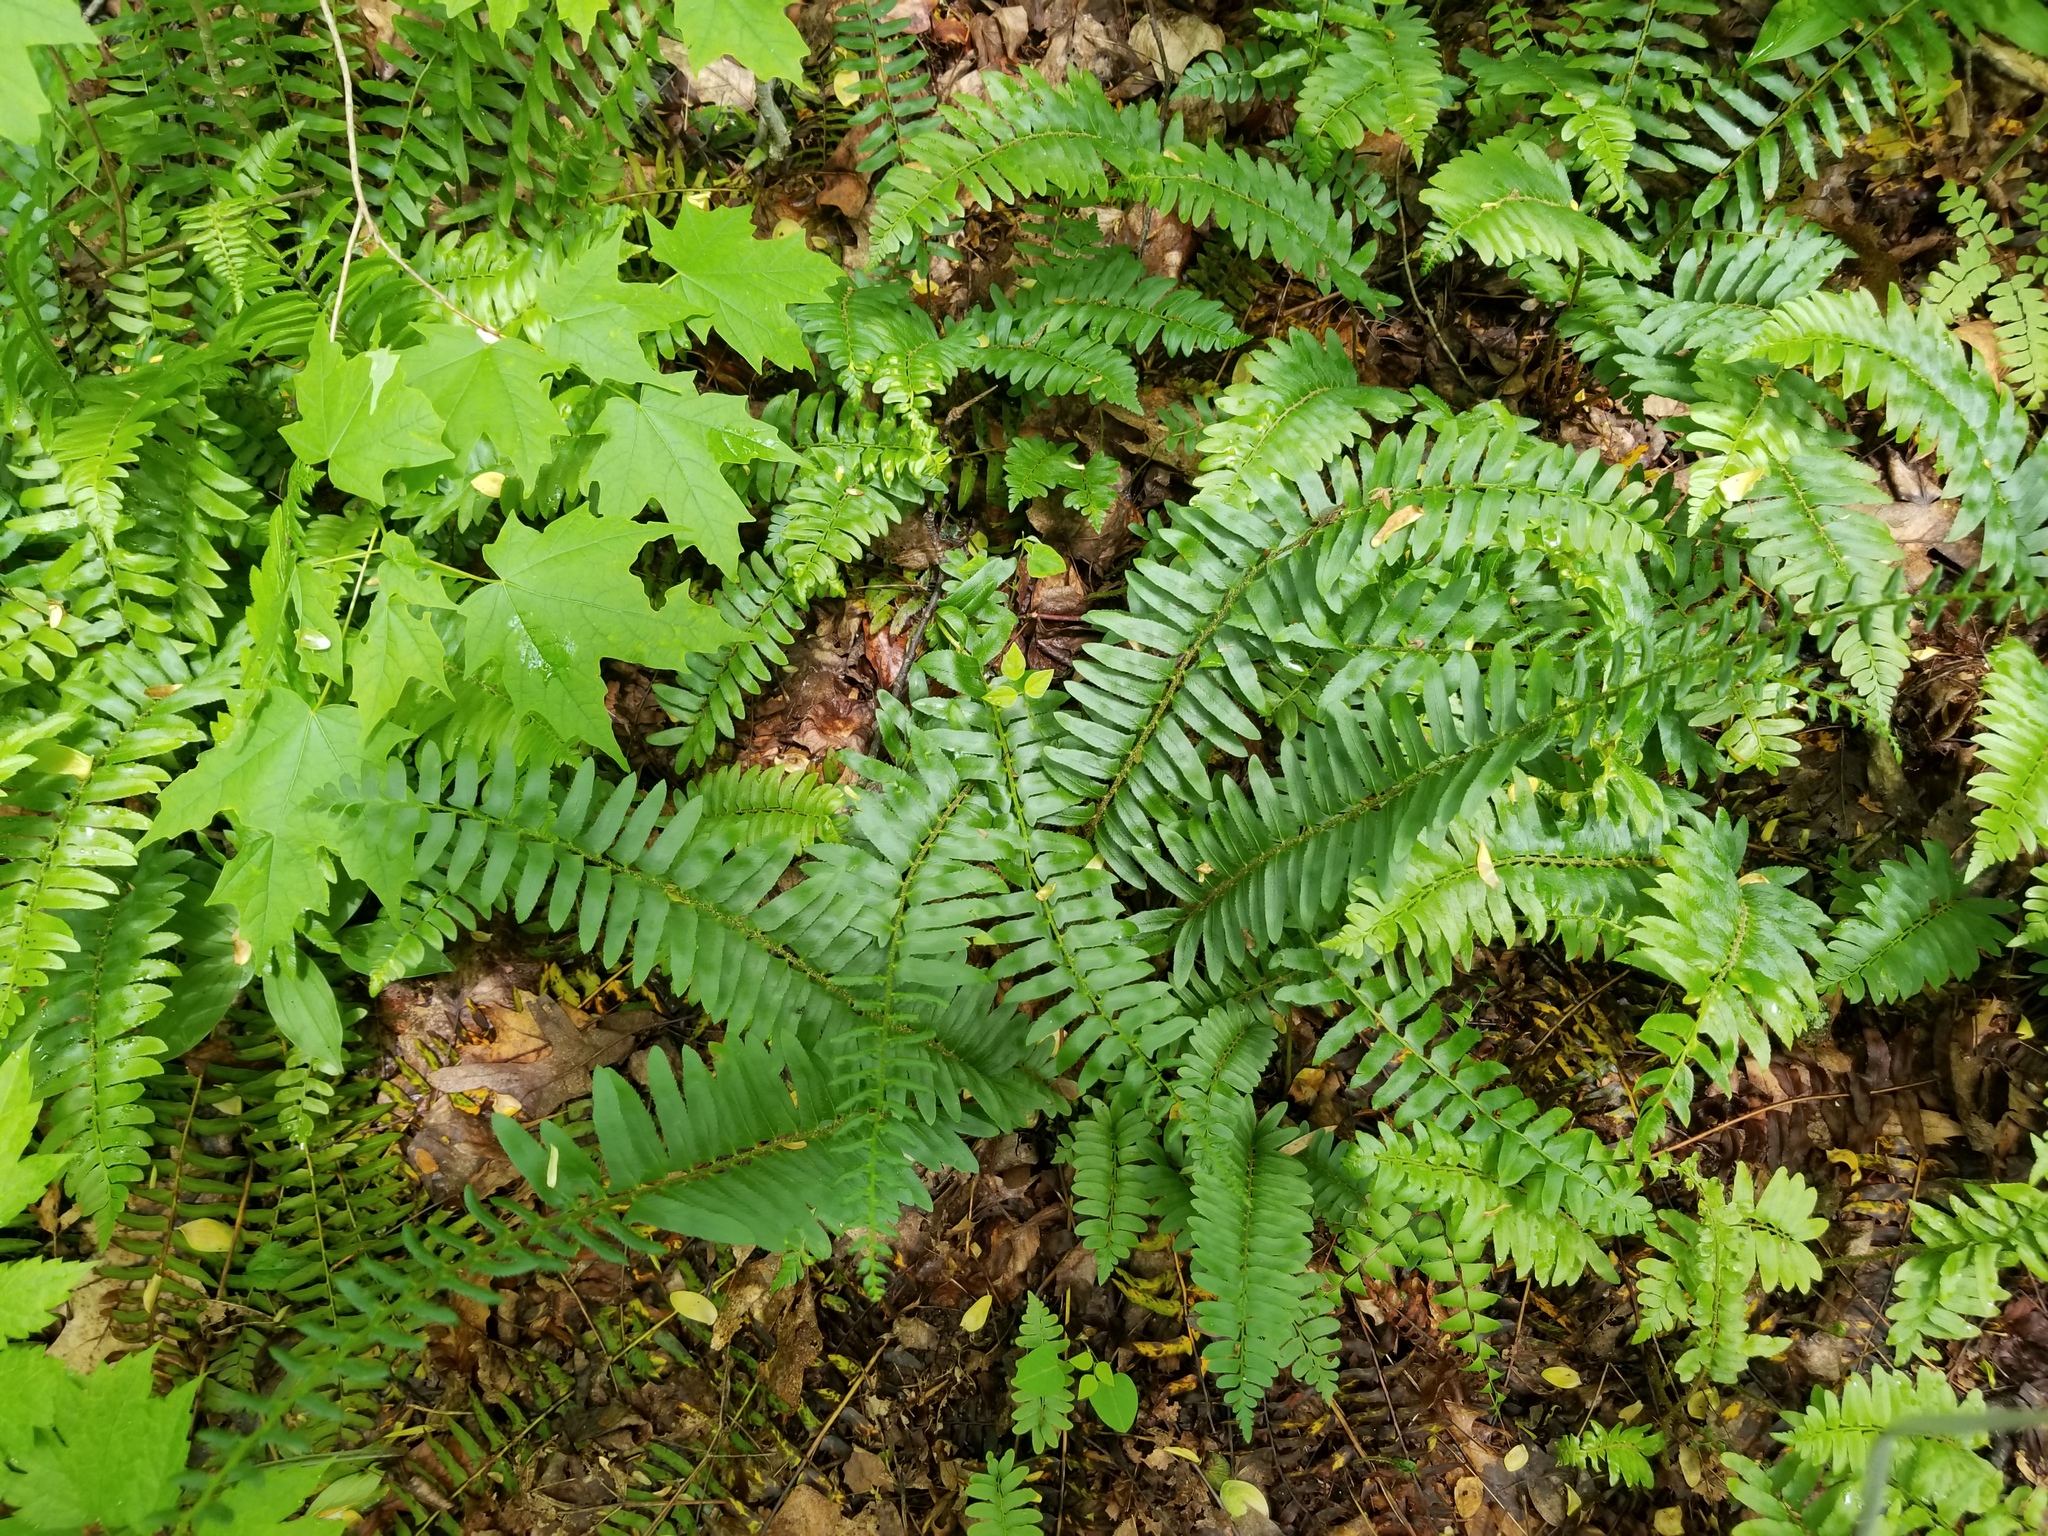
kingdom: Plantae
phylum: Tracheophyta
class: Polypodiopsida
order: Polypodiales
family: Dryopteridaceae
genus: Polystichum
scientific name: Polystichum acrostichoides
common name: Christmas fern
